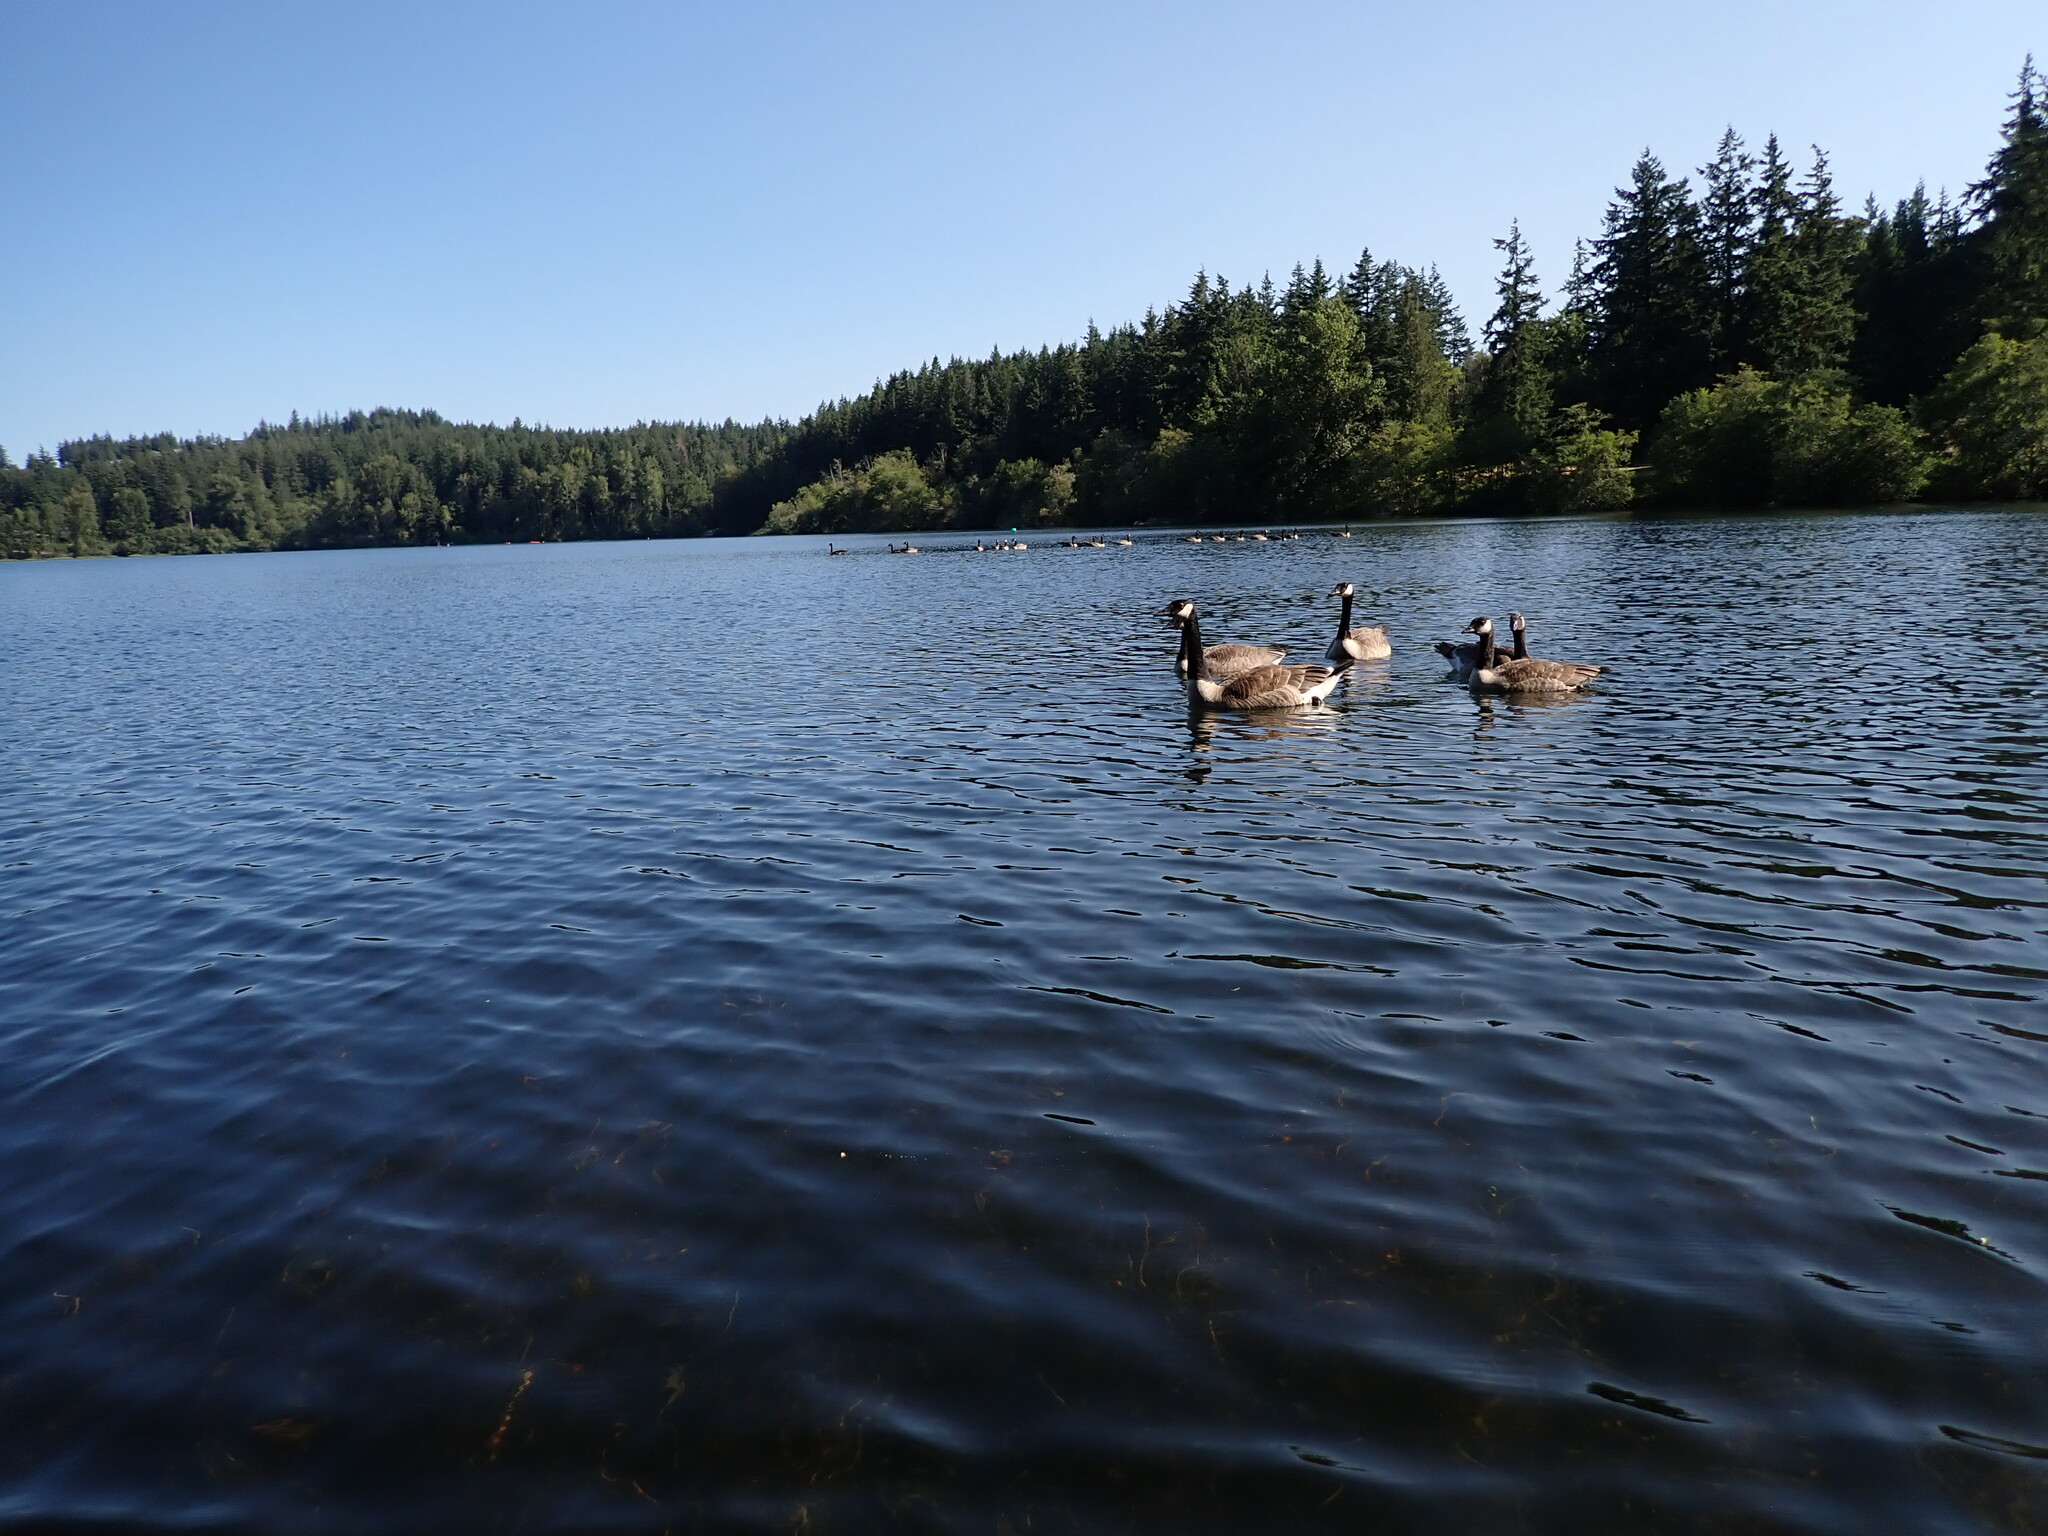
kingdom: Animalia
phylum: Chordata
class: Aves
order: Anseriformes
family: Anatidae
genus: Branta
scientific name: Branta canadensis
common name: Canada goose
